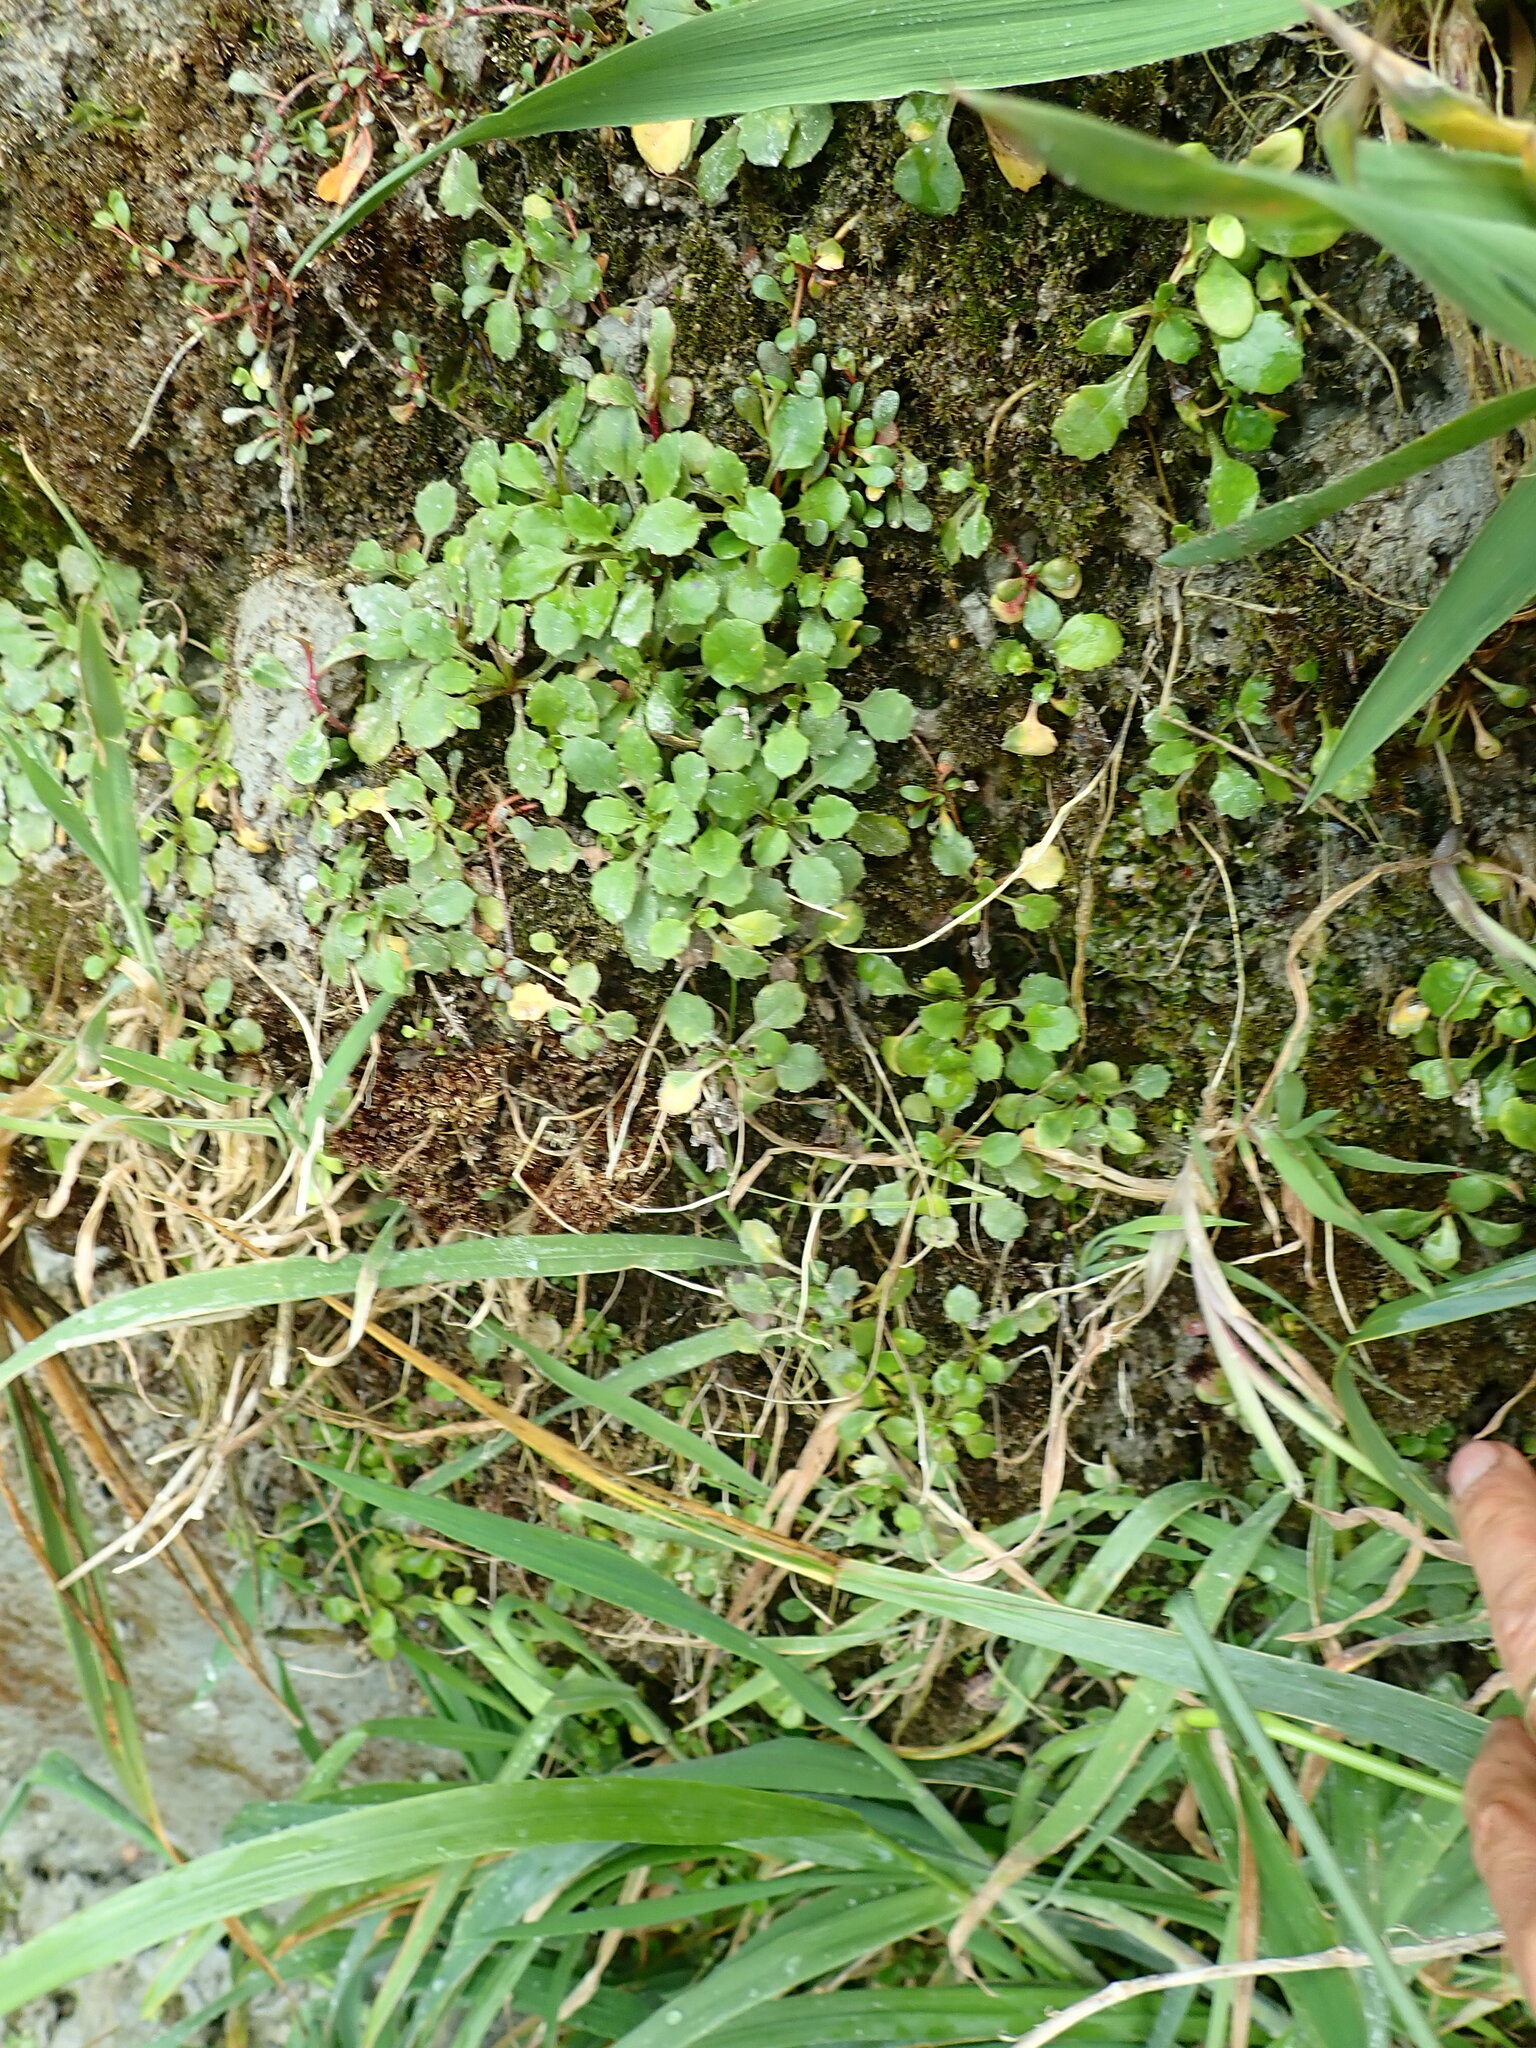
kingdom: Plantae
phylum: Tracheophyta
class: Magnoliopsida
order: Asterales
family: Asteraceae
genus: Lagenophora
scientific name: Lagenophora pumila
